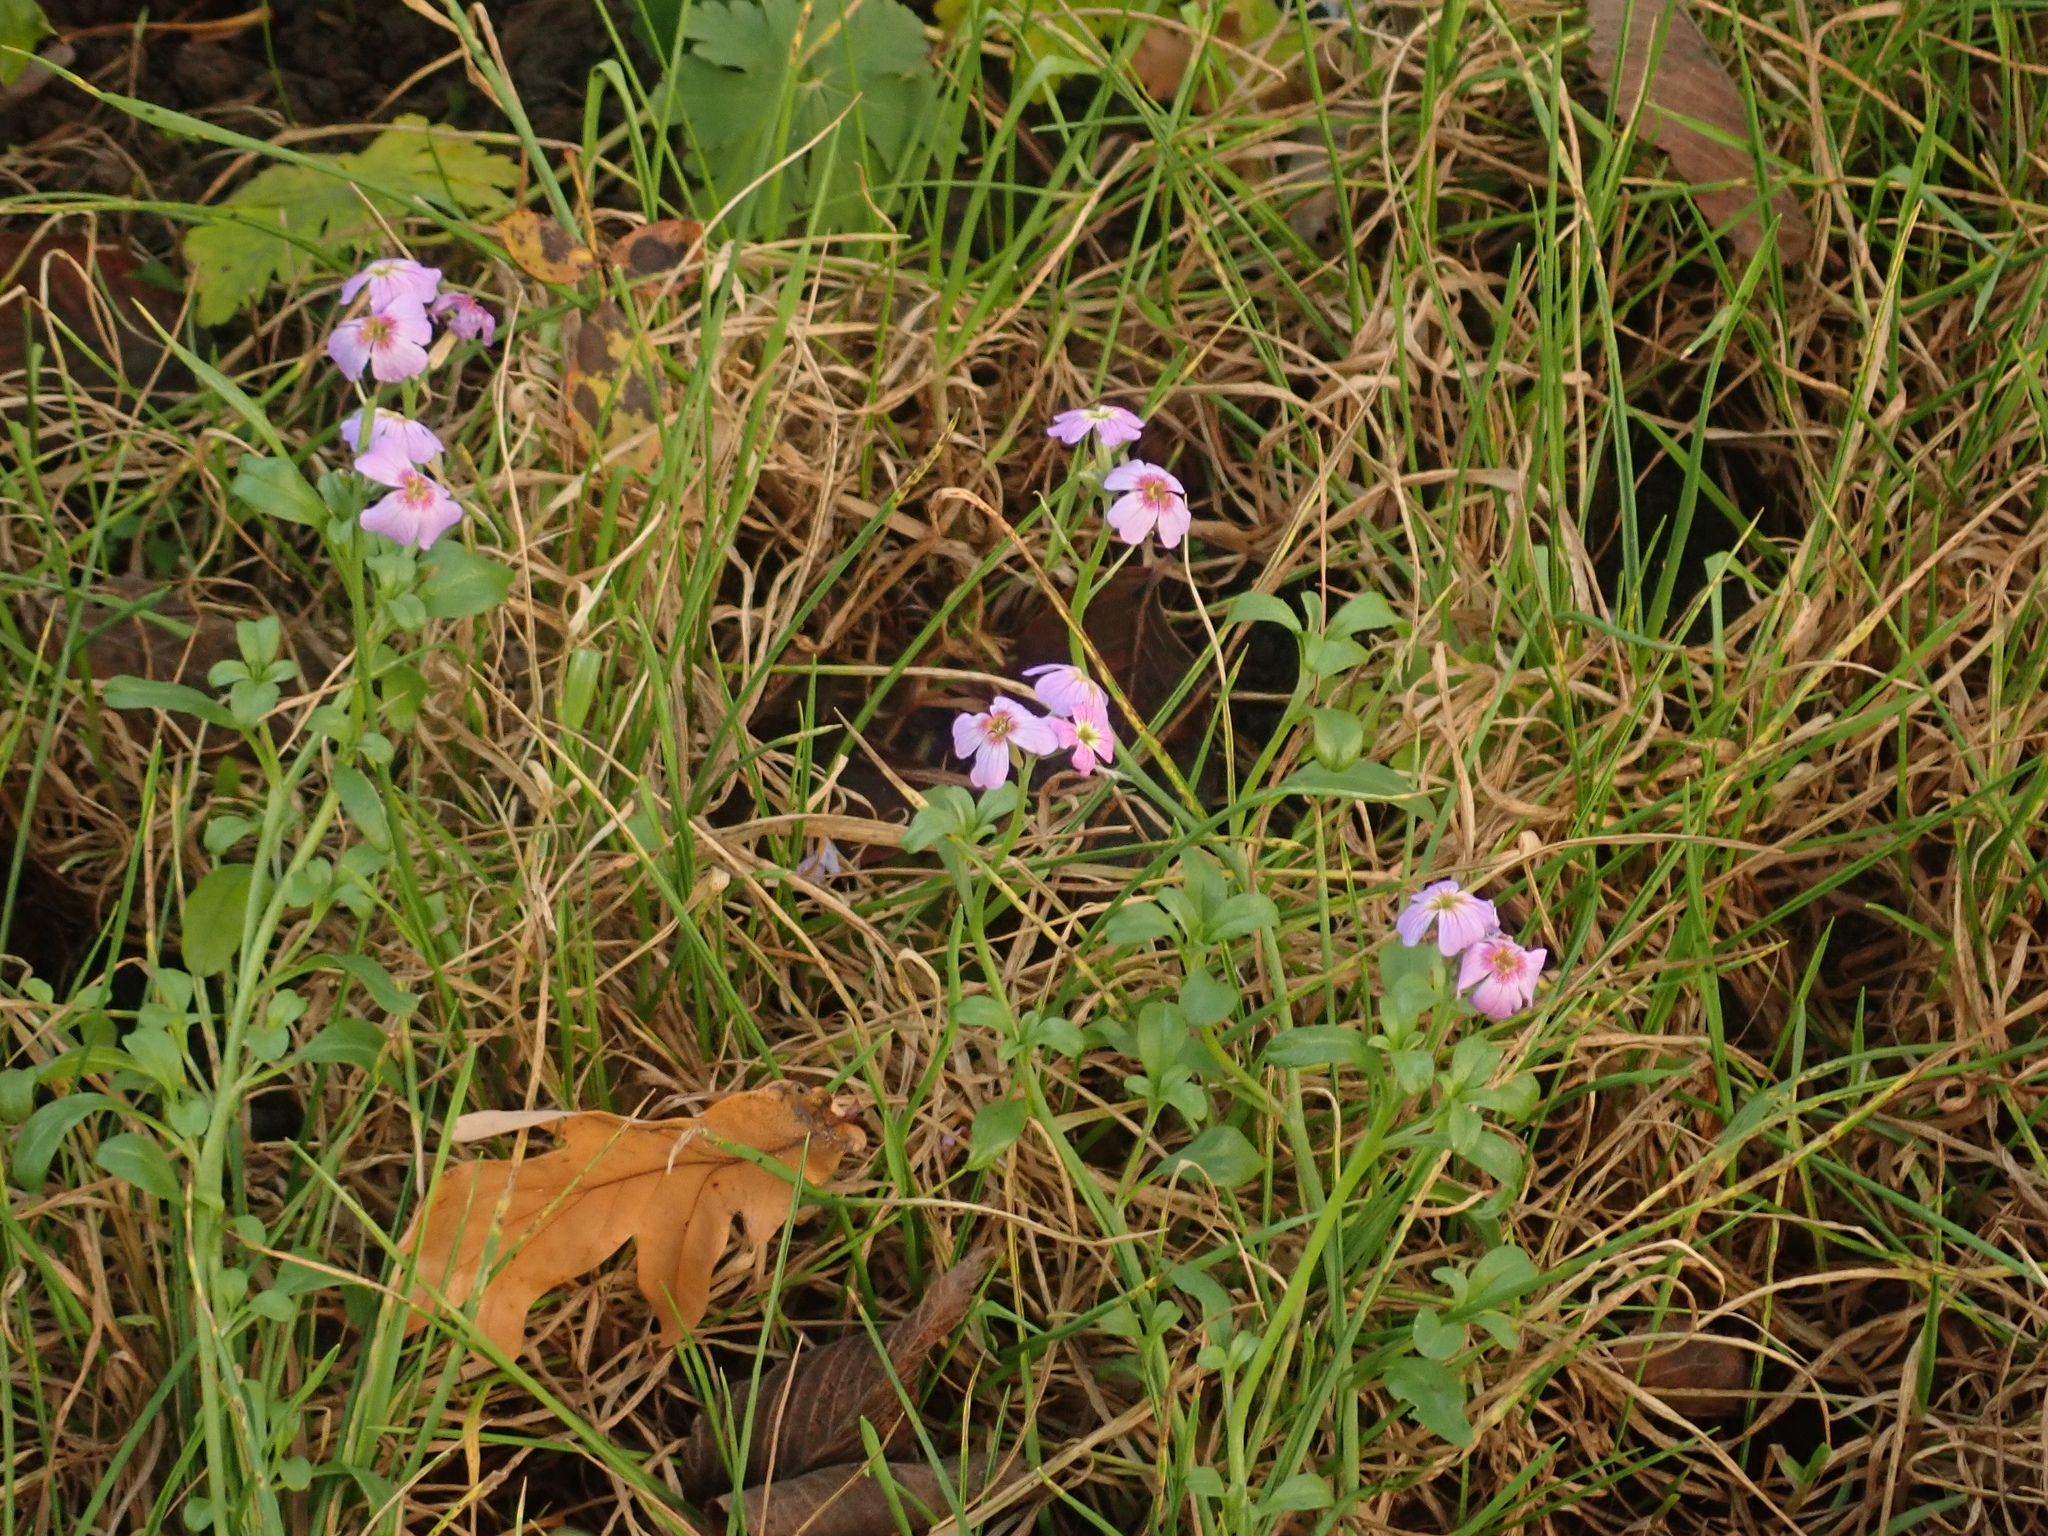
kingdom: Plantae
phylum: Tracheophyta
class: Magnoliopsida
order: Brassicales
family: Brassicaceae
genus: Malcolmia
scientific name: Malcolmia maritima
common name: Virginia stock
